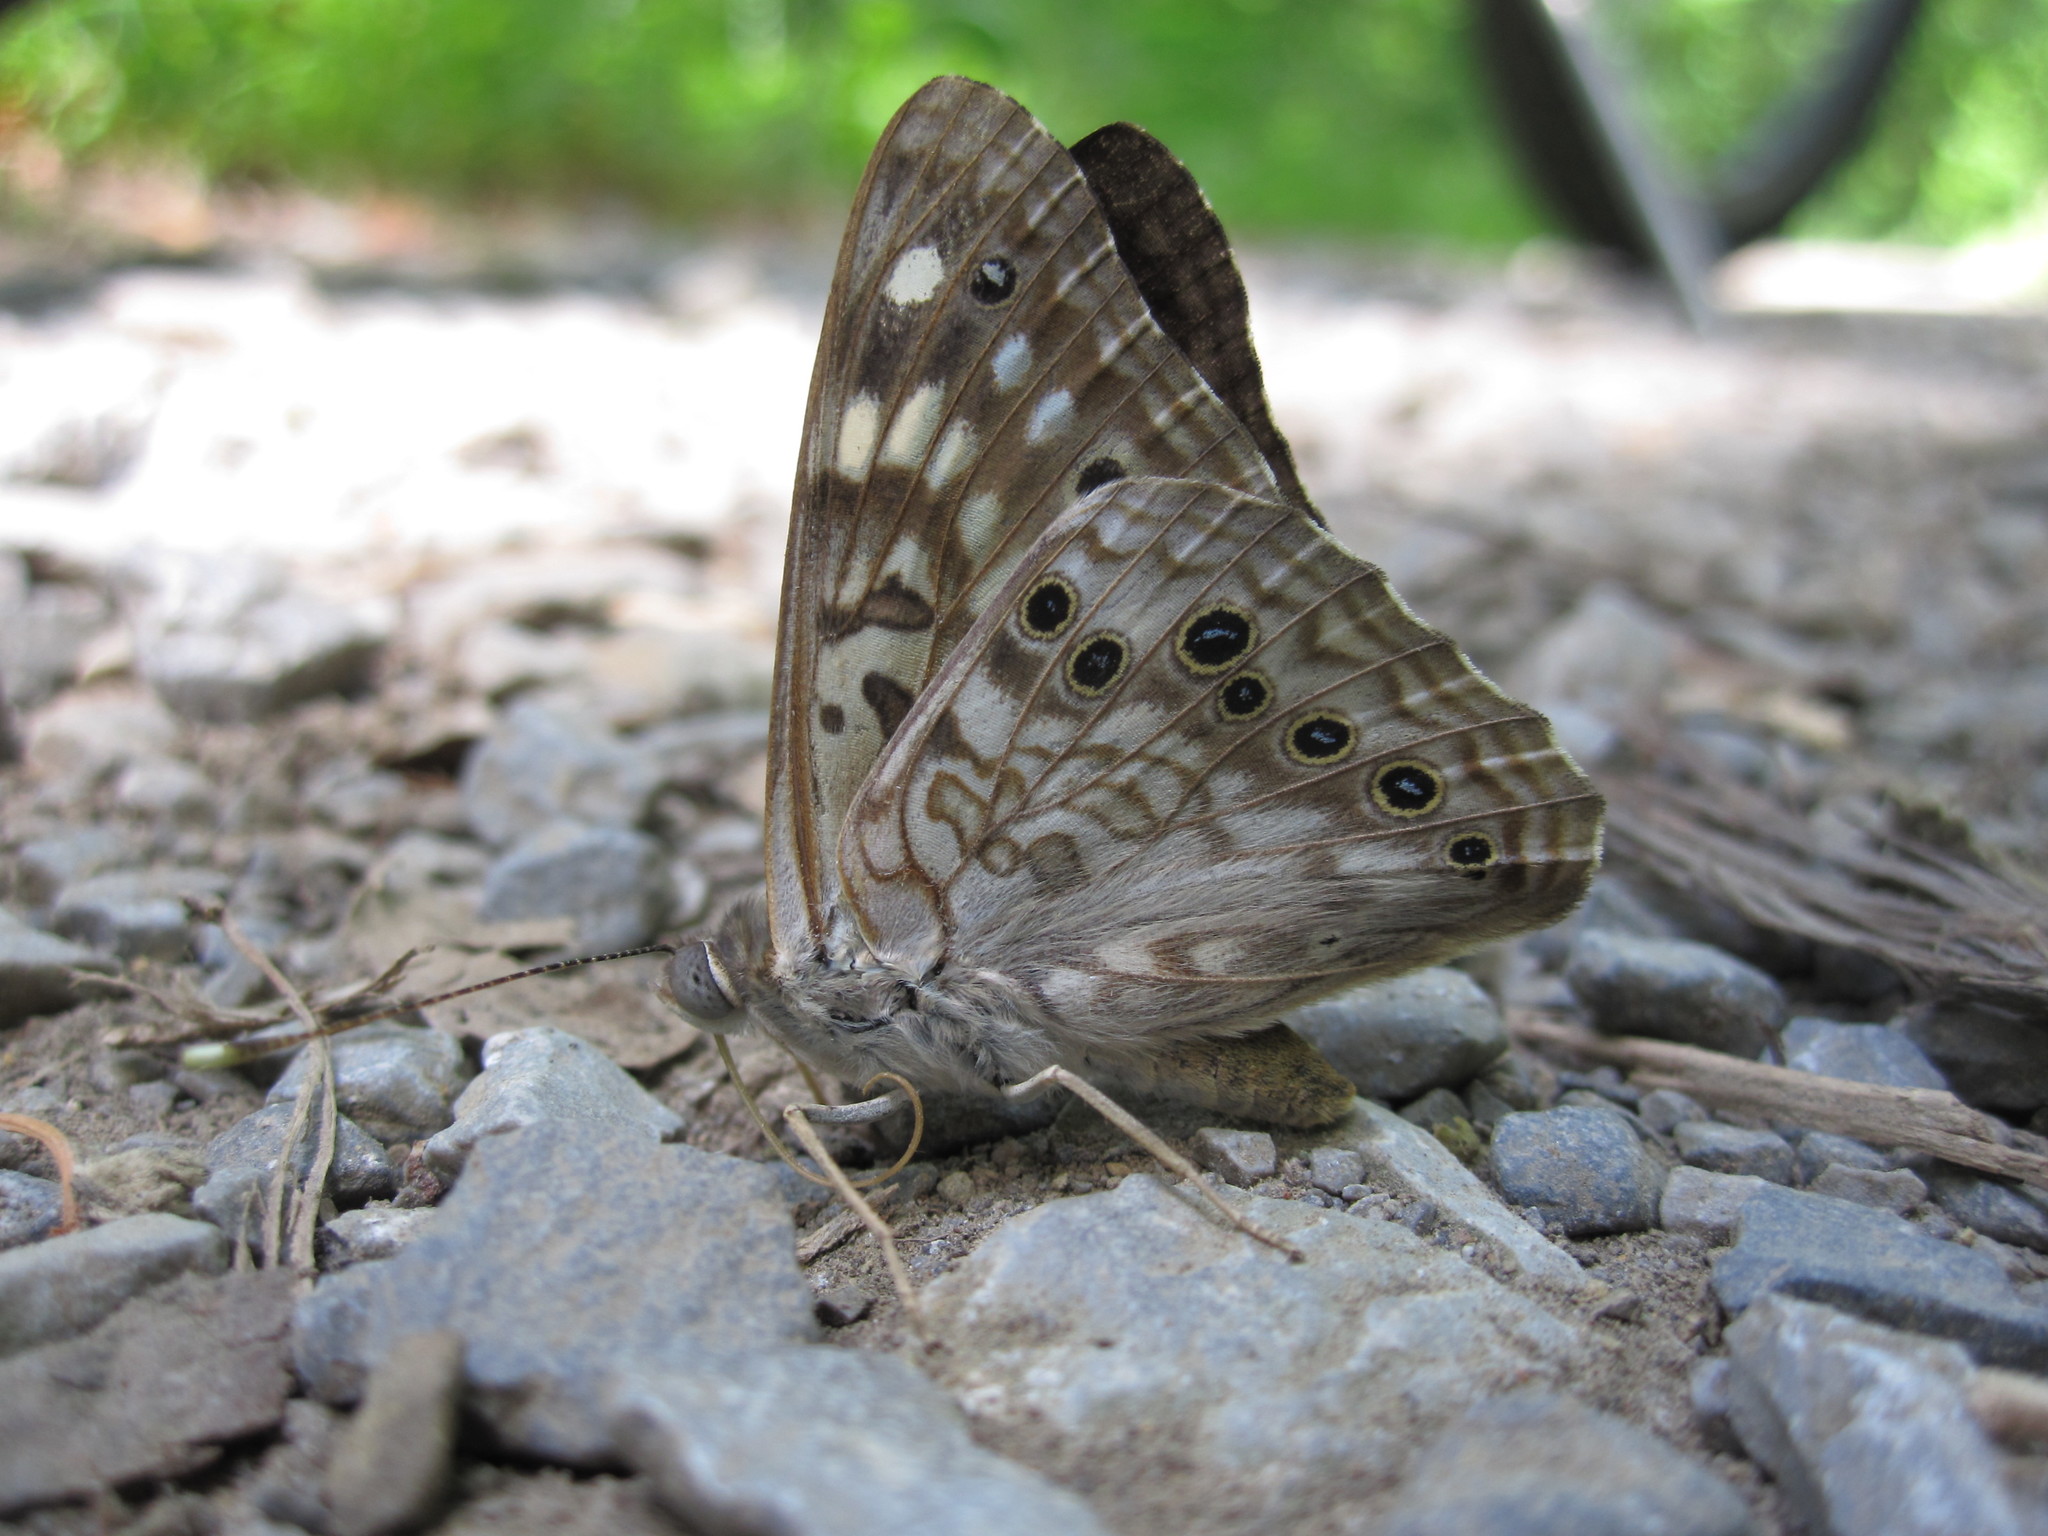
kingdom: Animalia
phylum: Arthropoda
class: Insecta
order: Lepidoptera
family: Nymphalidae
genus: Asterocampa
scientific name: Asterocampa celtis
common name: Hackberry emperor
